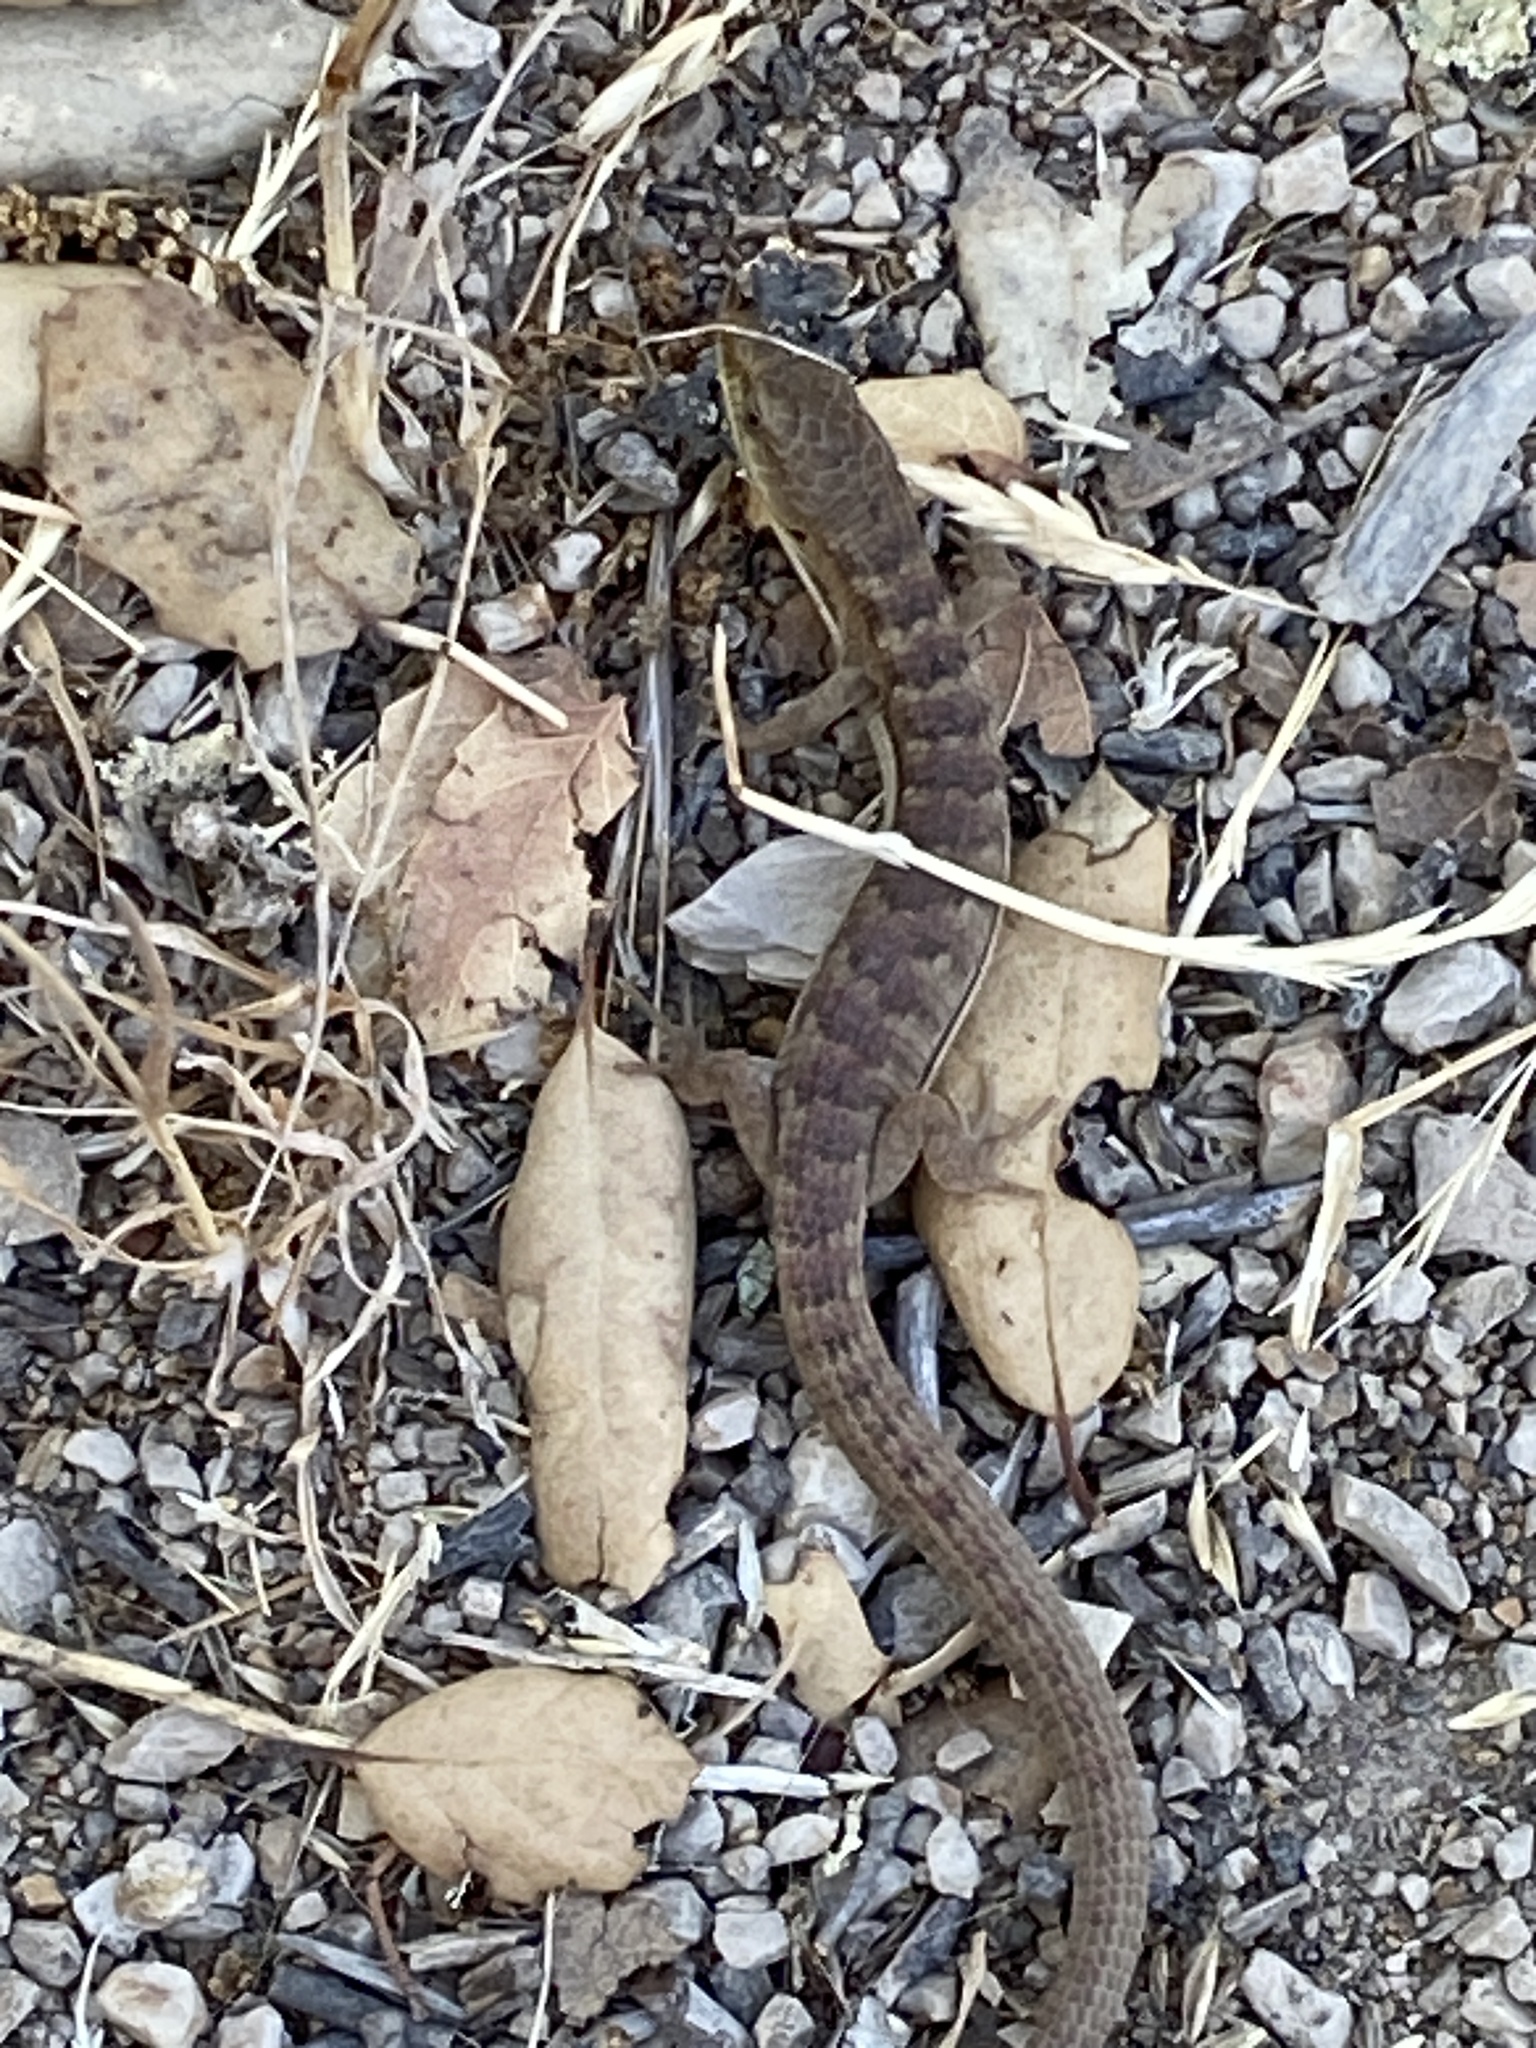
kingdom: Animalia
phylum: Chordata
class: Squamata
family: Anguidae
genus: Elgaria
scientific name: Elgaria multicarinata
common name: Southern alligator lizard
